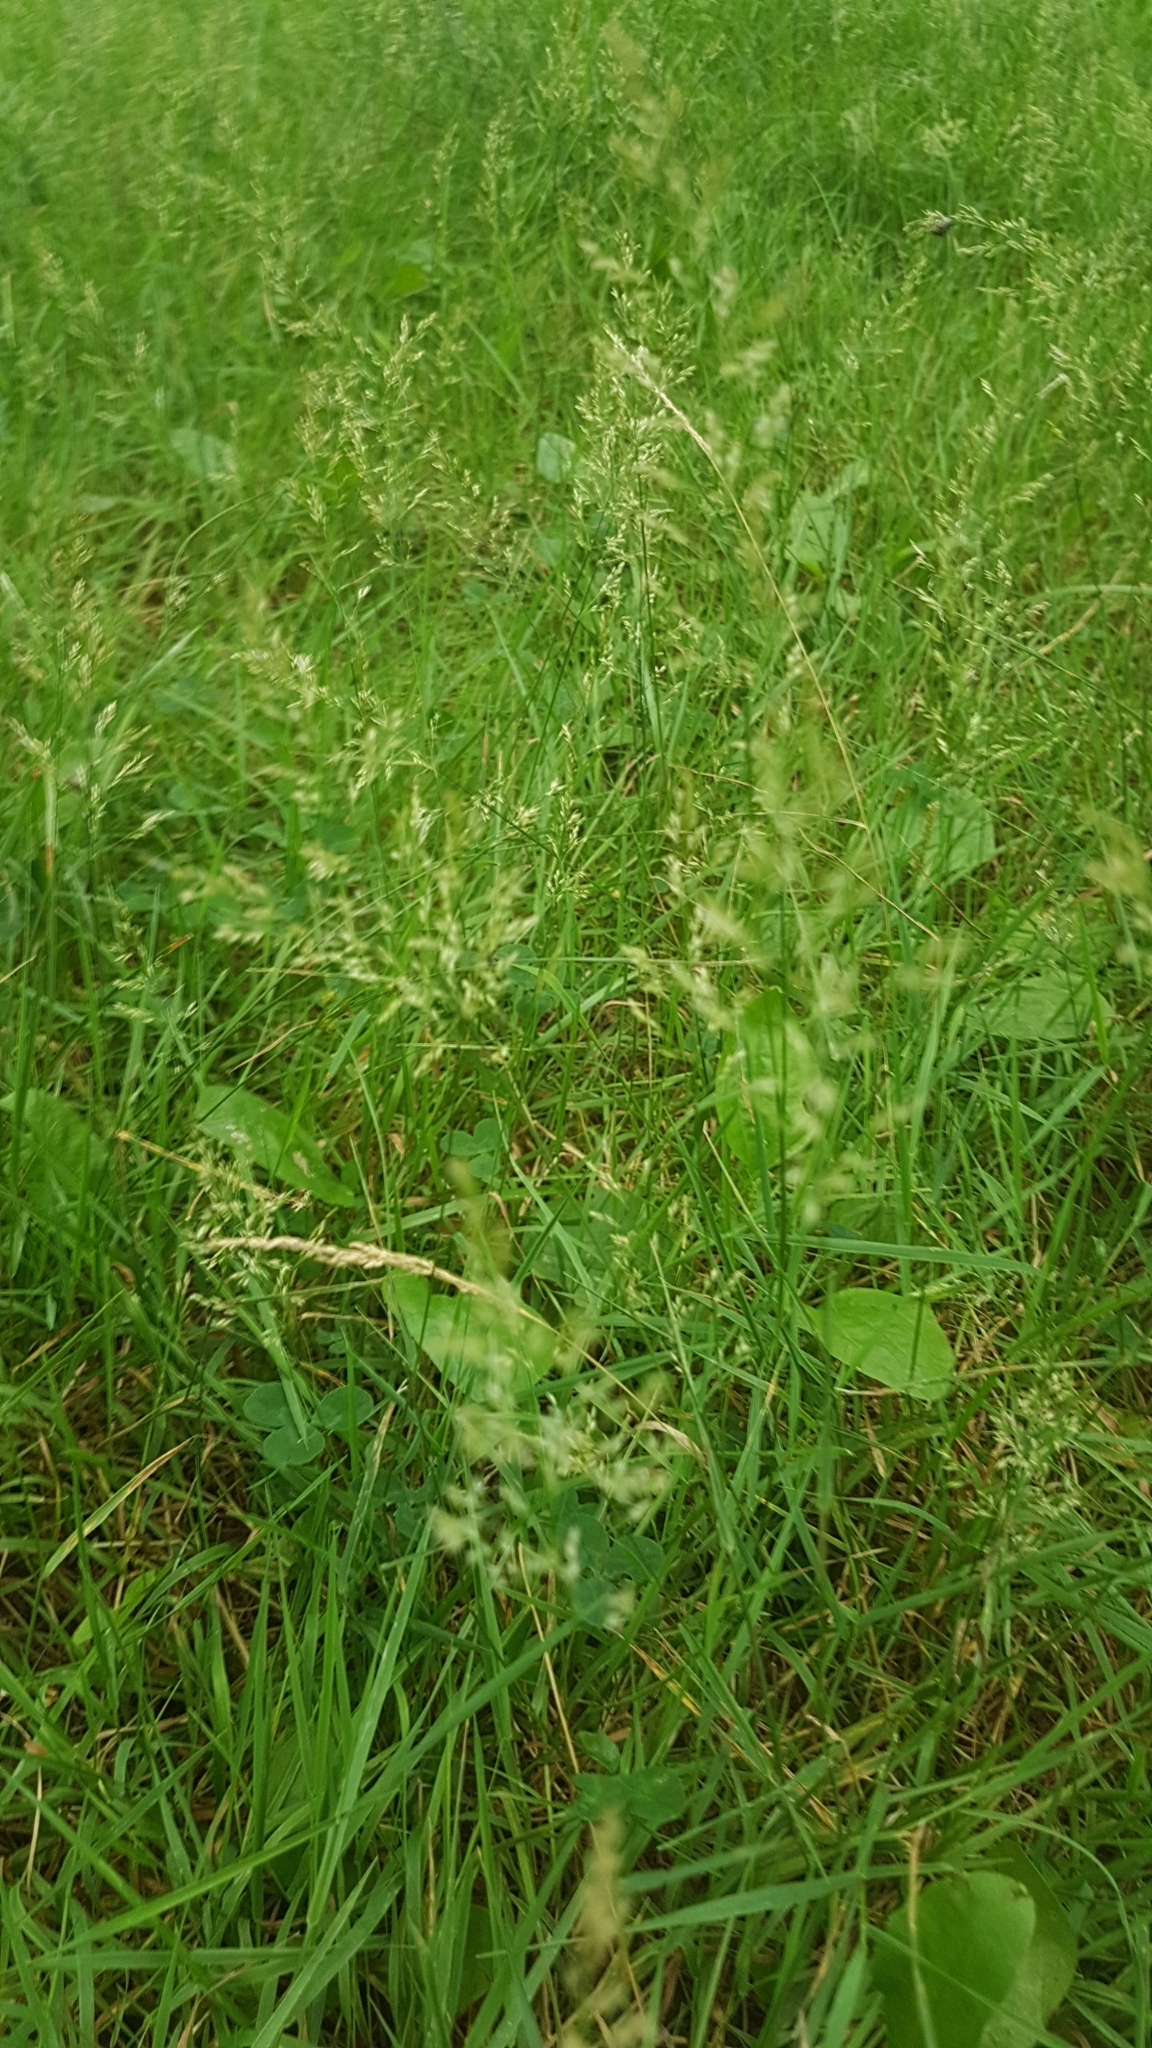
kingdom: Plantae
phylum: Tracheophyta
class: Liliopsida
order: Poales
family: Poaceae
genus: Poa
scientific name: Poa pratensis
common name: Kentucky bluegrass
